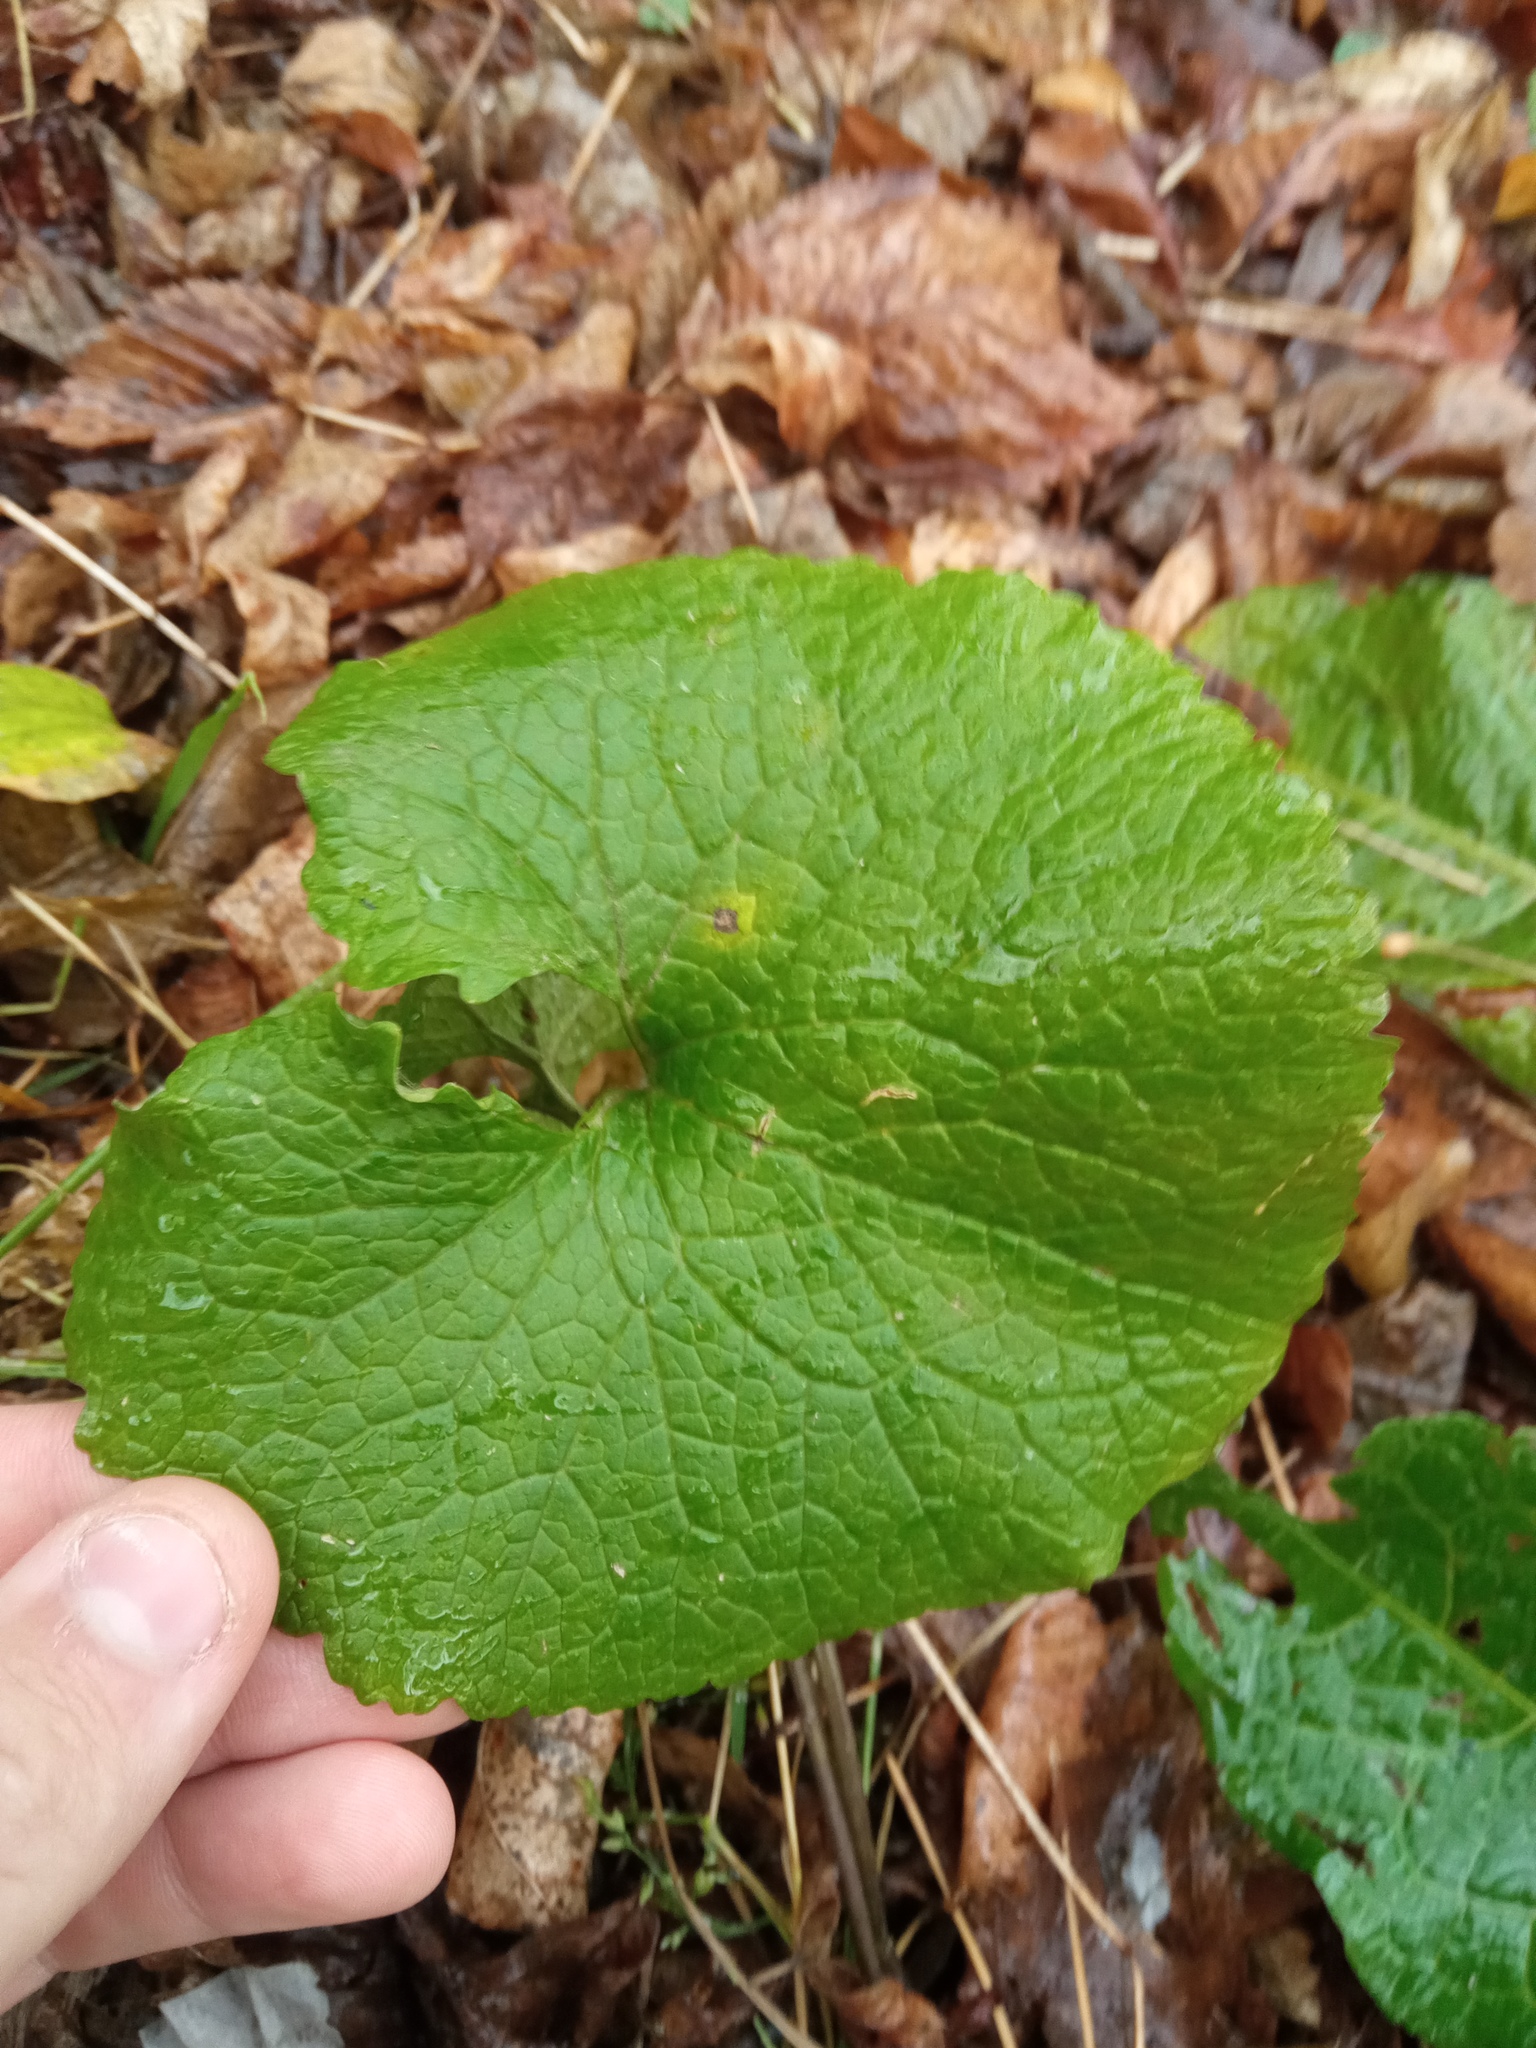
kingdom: Plantae
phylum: Tracheophyta
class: Magnoliopsida
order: Brassicales
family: Brassicaceae
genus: Alliaria
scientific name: Alliaria petiolata
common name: Garlic mustard
